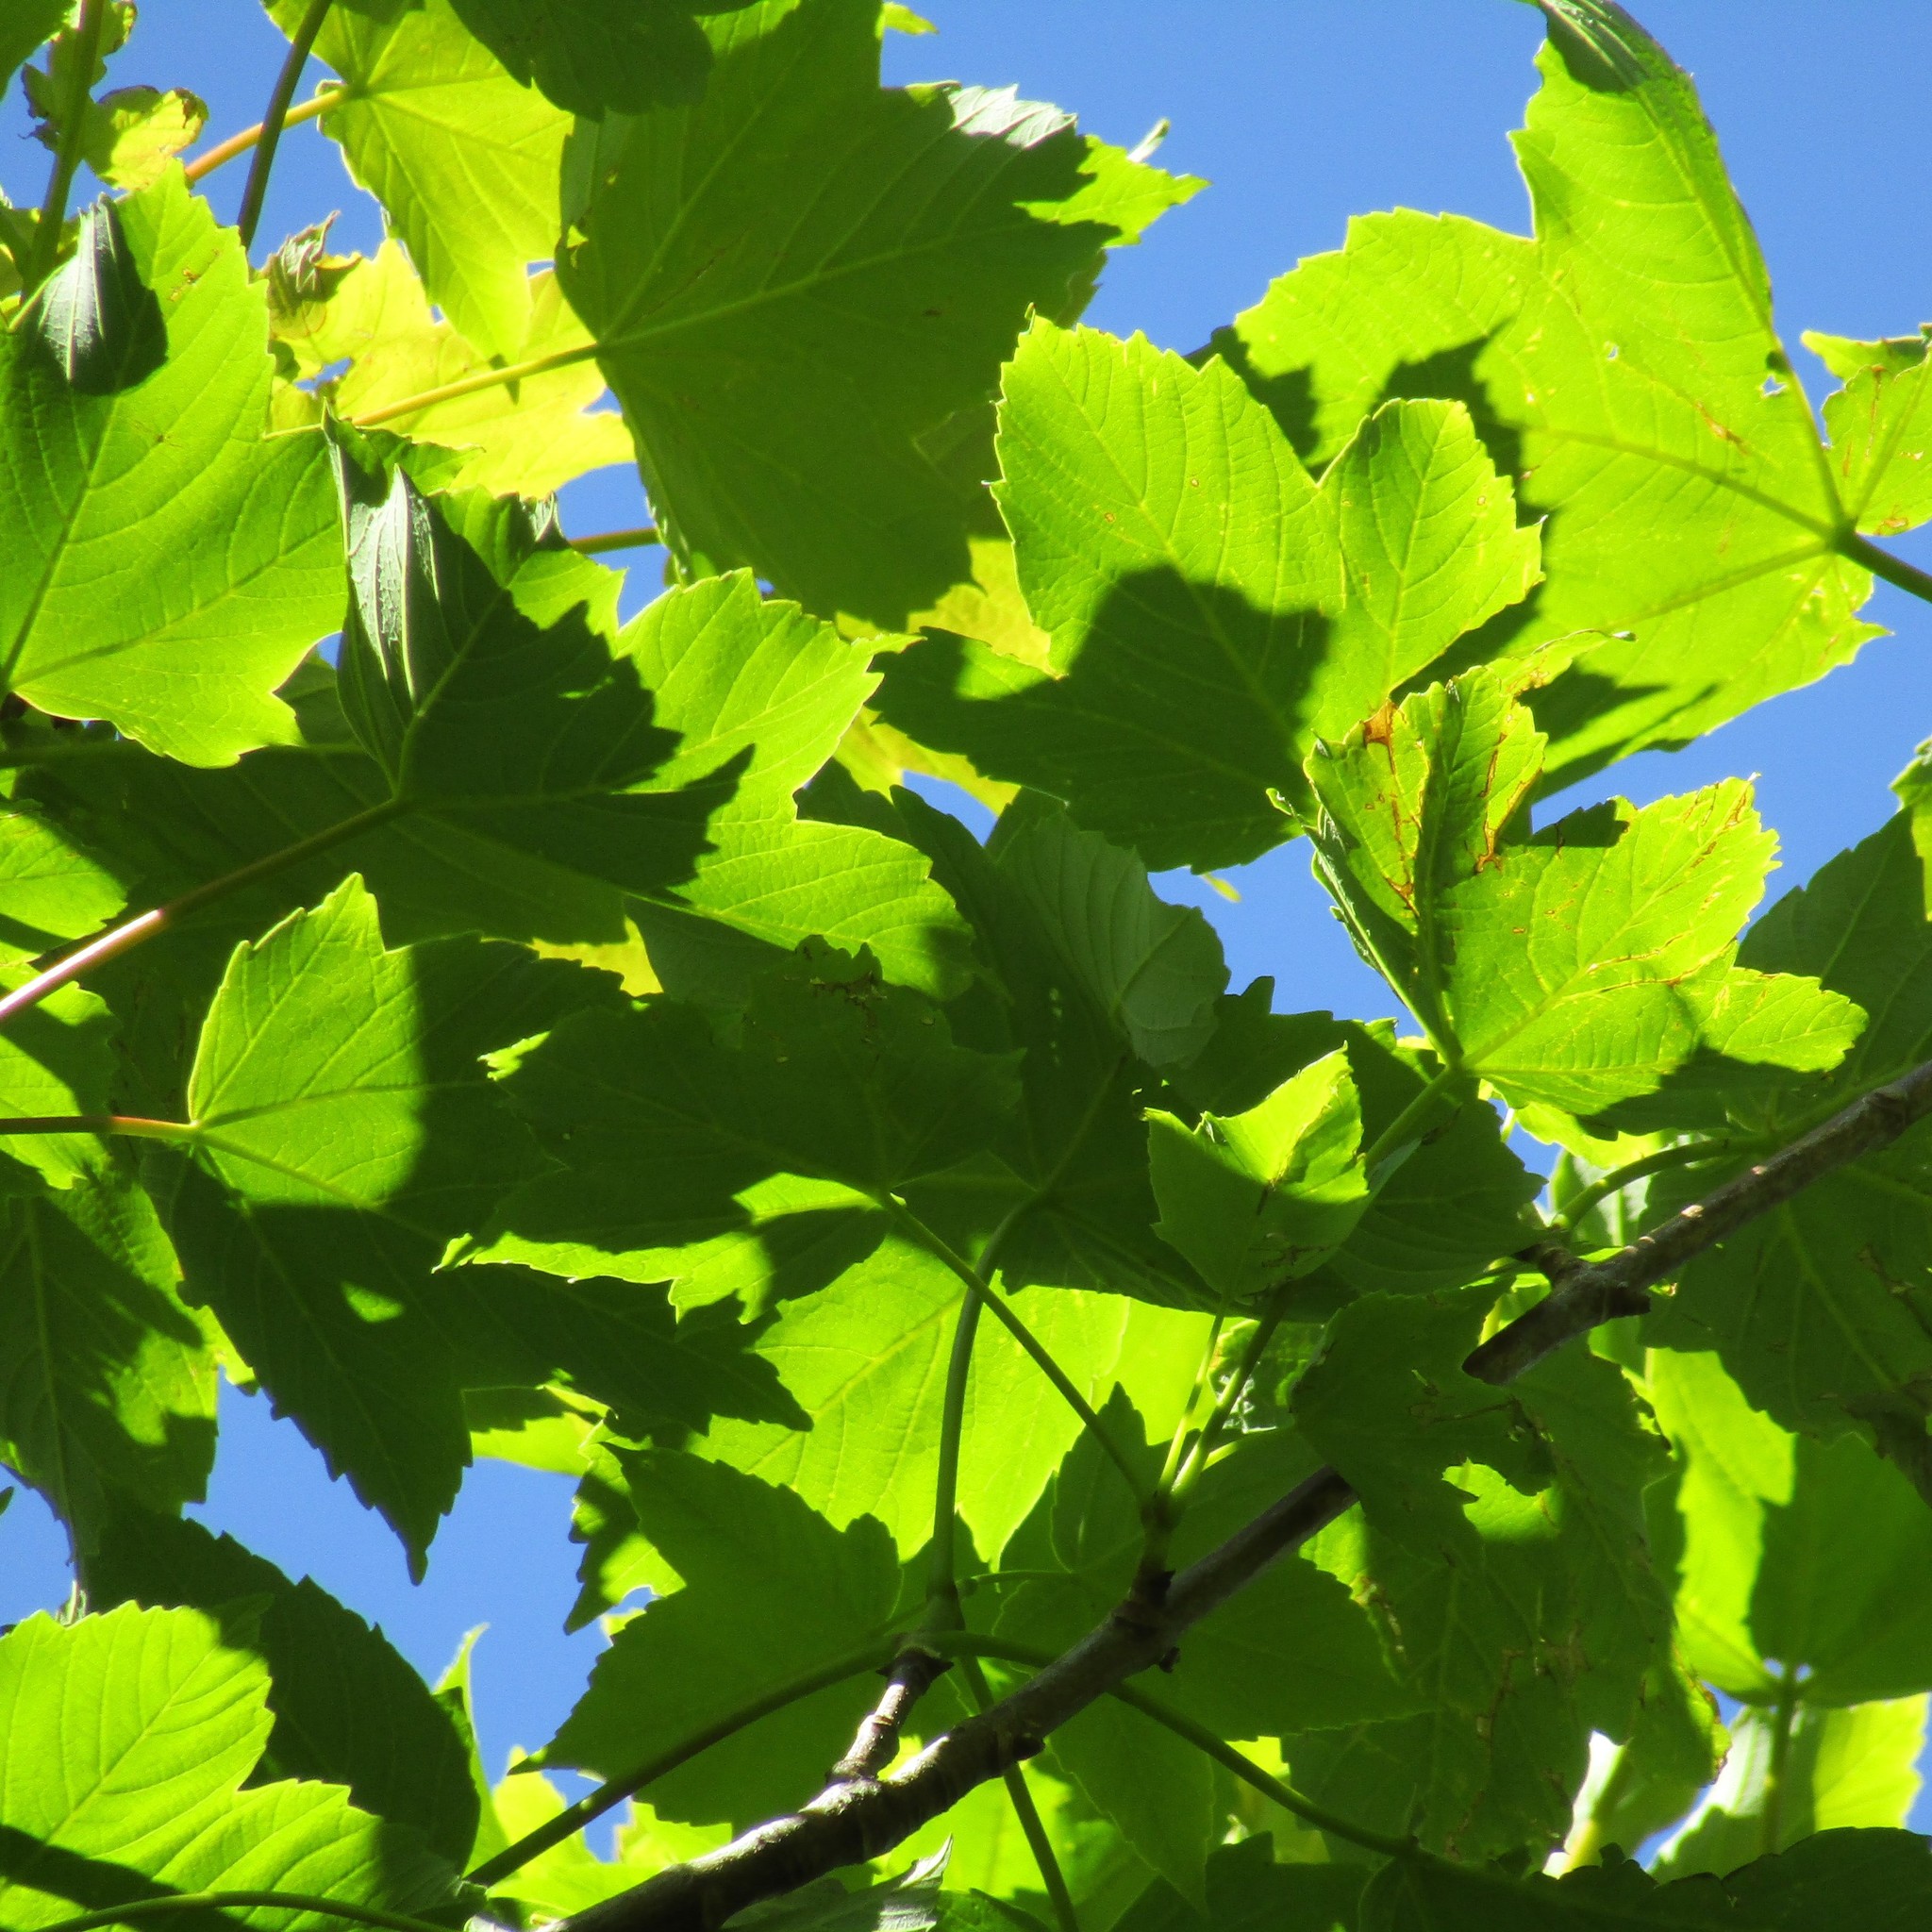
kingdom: Plantae
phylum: Tracheophyta
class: Magnoliopsida
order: Sapindales
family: Sapindaceae
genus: Acer
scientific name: Acer pseudoplatanus
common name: Sycamore
